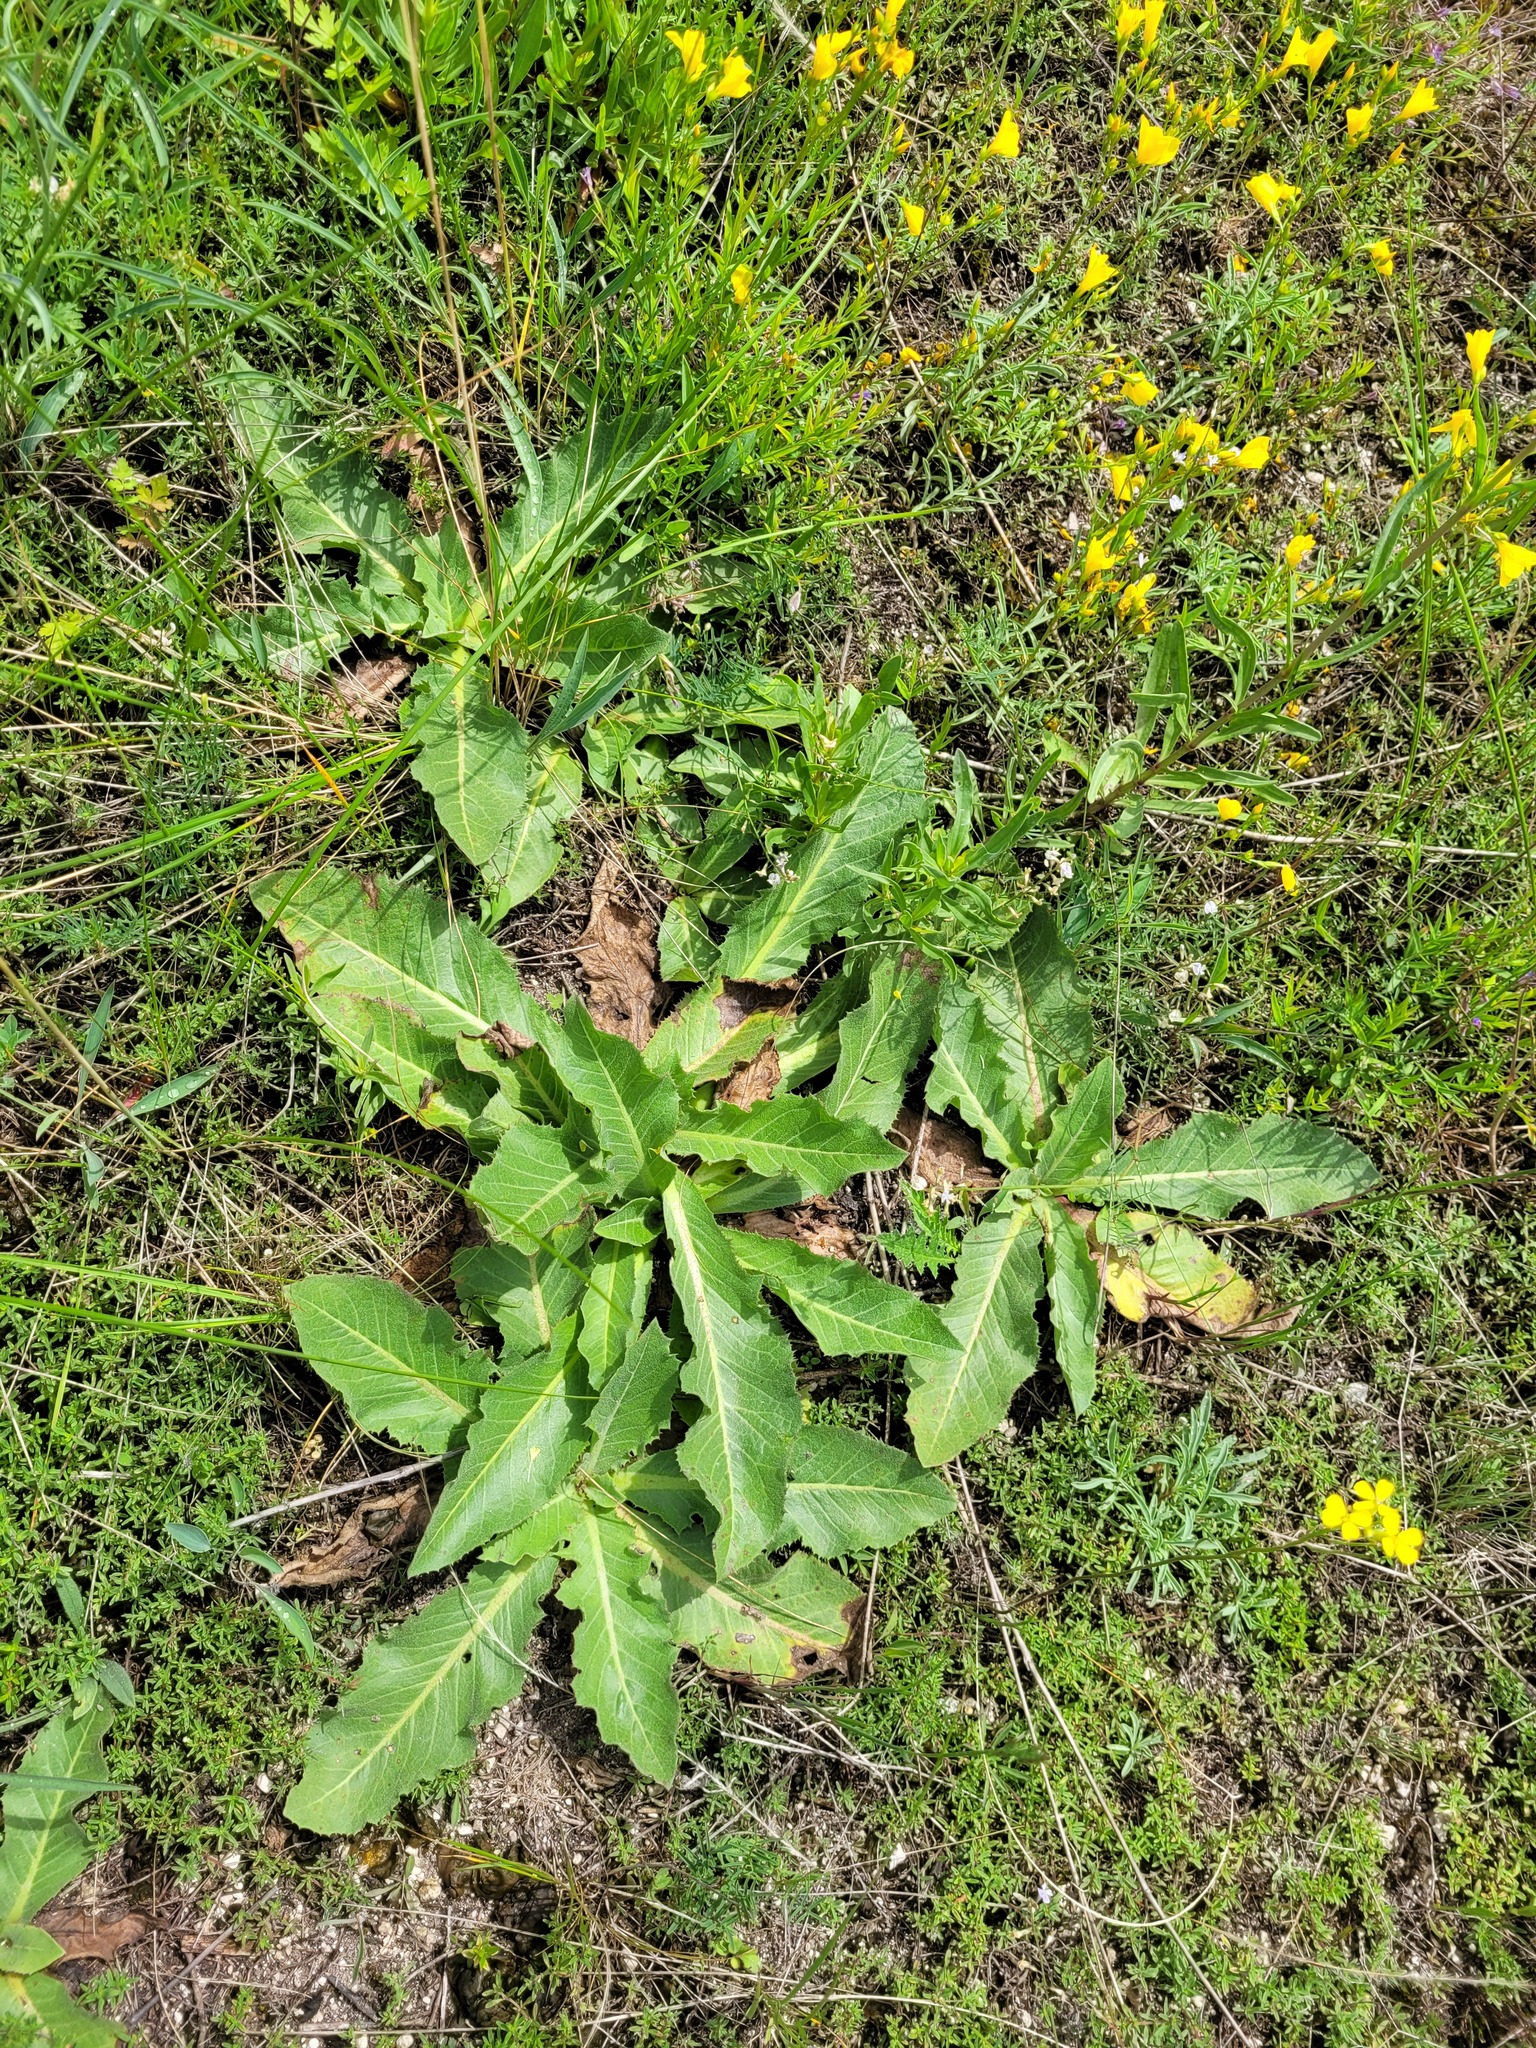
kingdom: Plantae
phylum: Tracheophyta
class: Magnoliopsida
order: Asterales
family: Asteraceae
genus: Taraxacum
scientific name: Taraxacum serotinum
